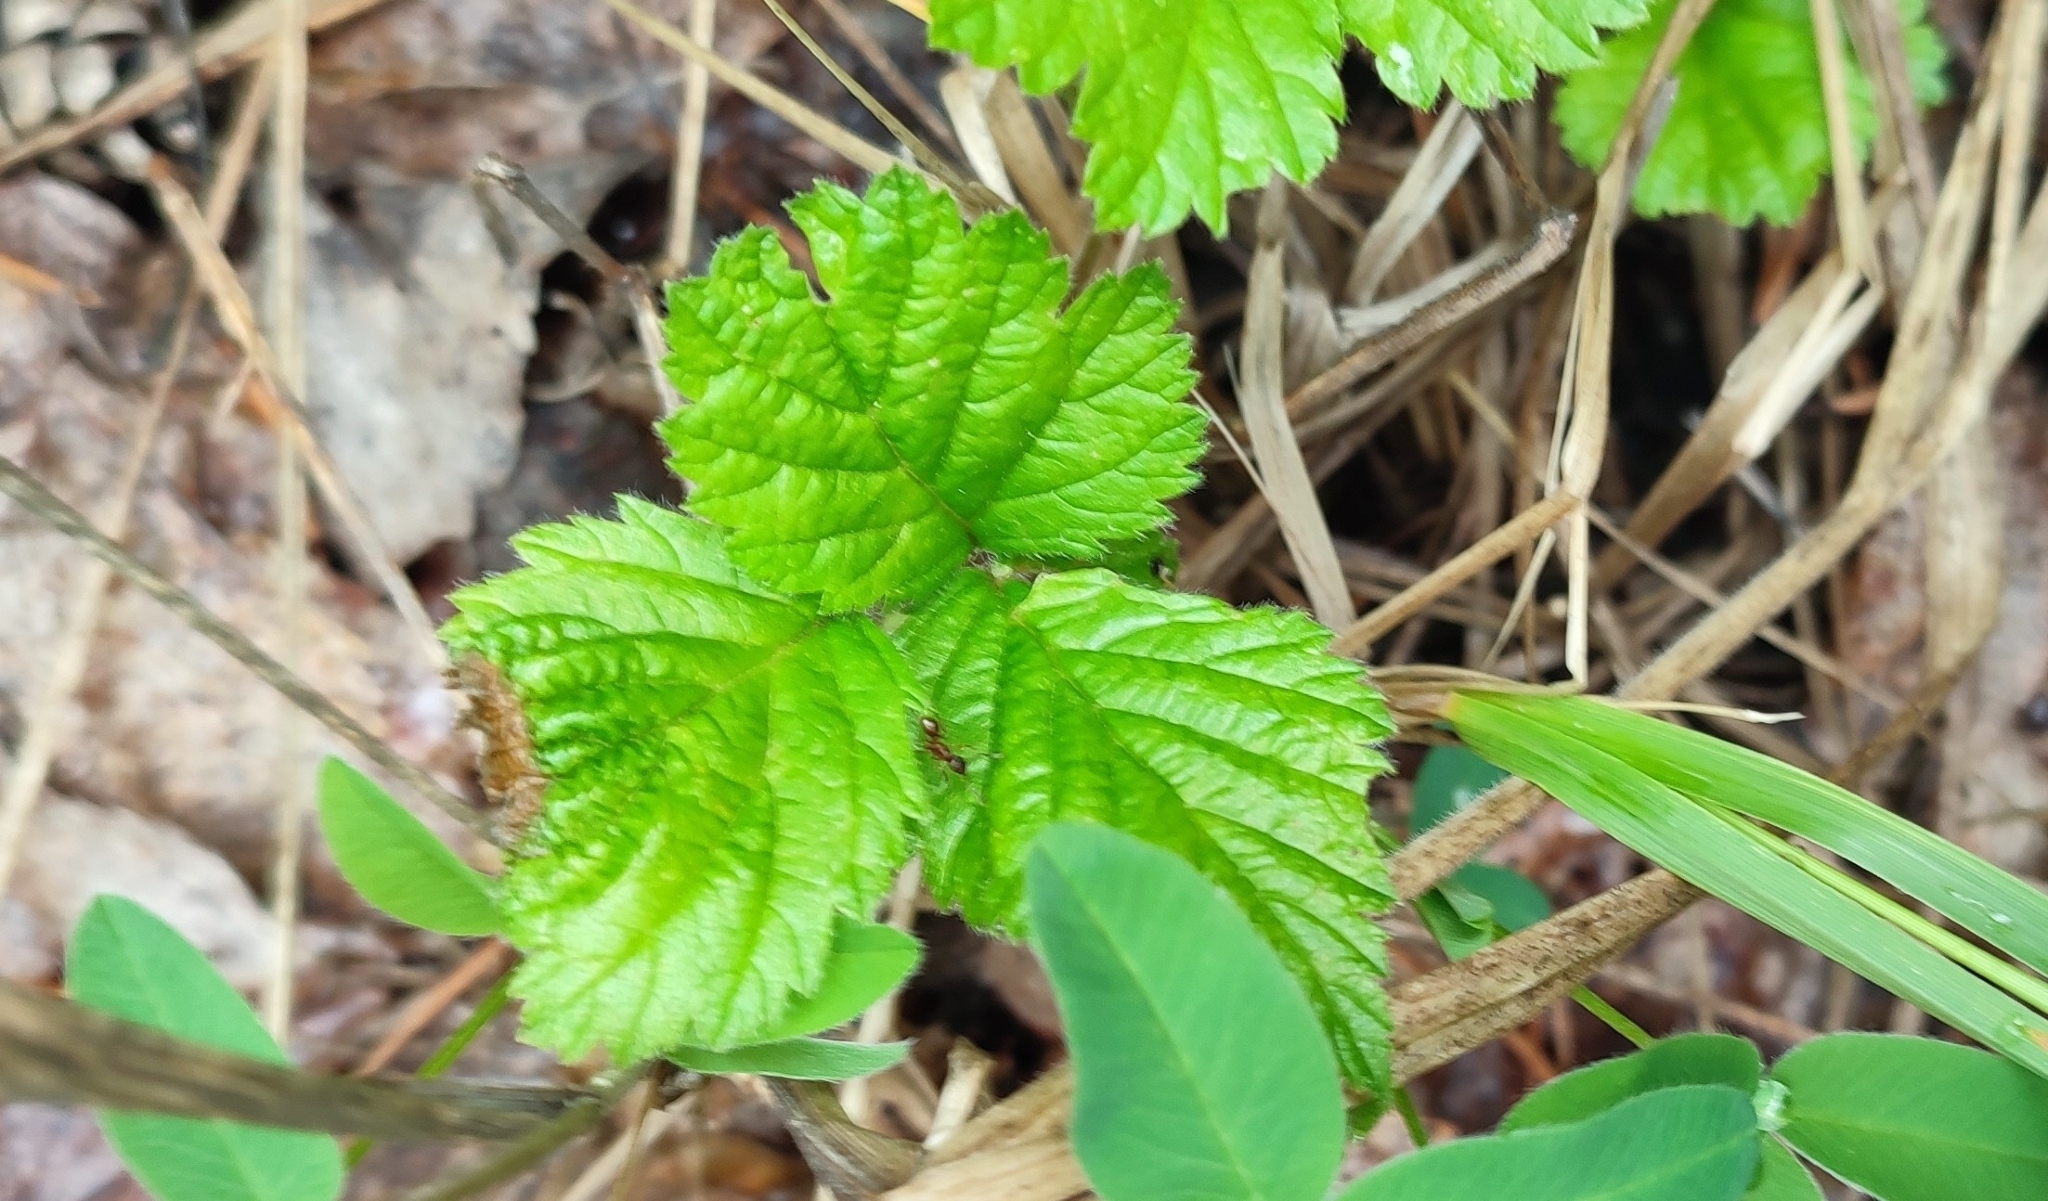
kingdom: Plantae
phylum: Tracheophyta
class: Magnoliopsida
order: Rosales
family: Rosaceae
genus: Rubus
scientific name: Rubus saxatilis
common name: Stone bramble
